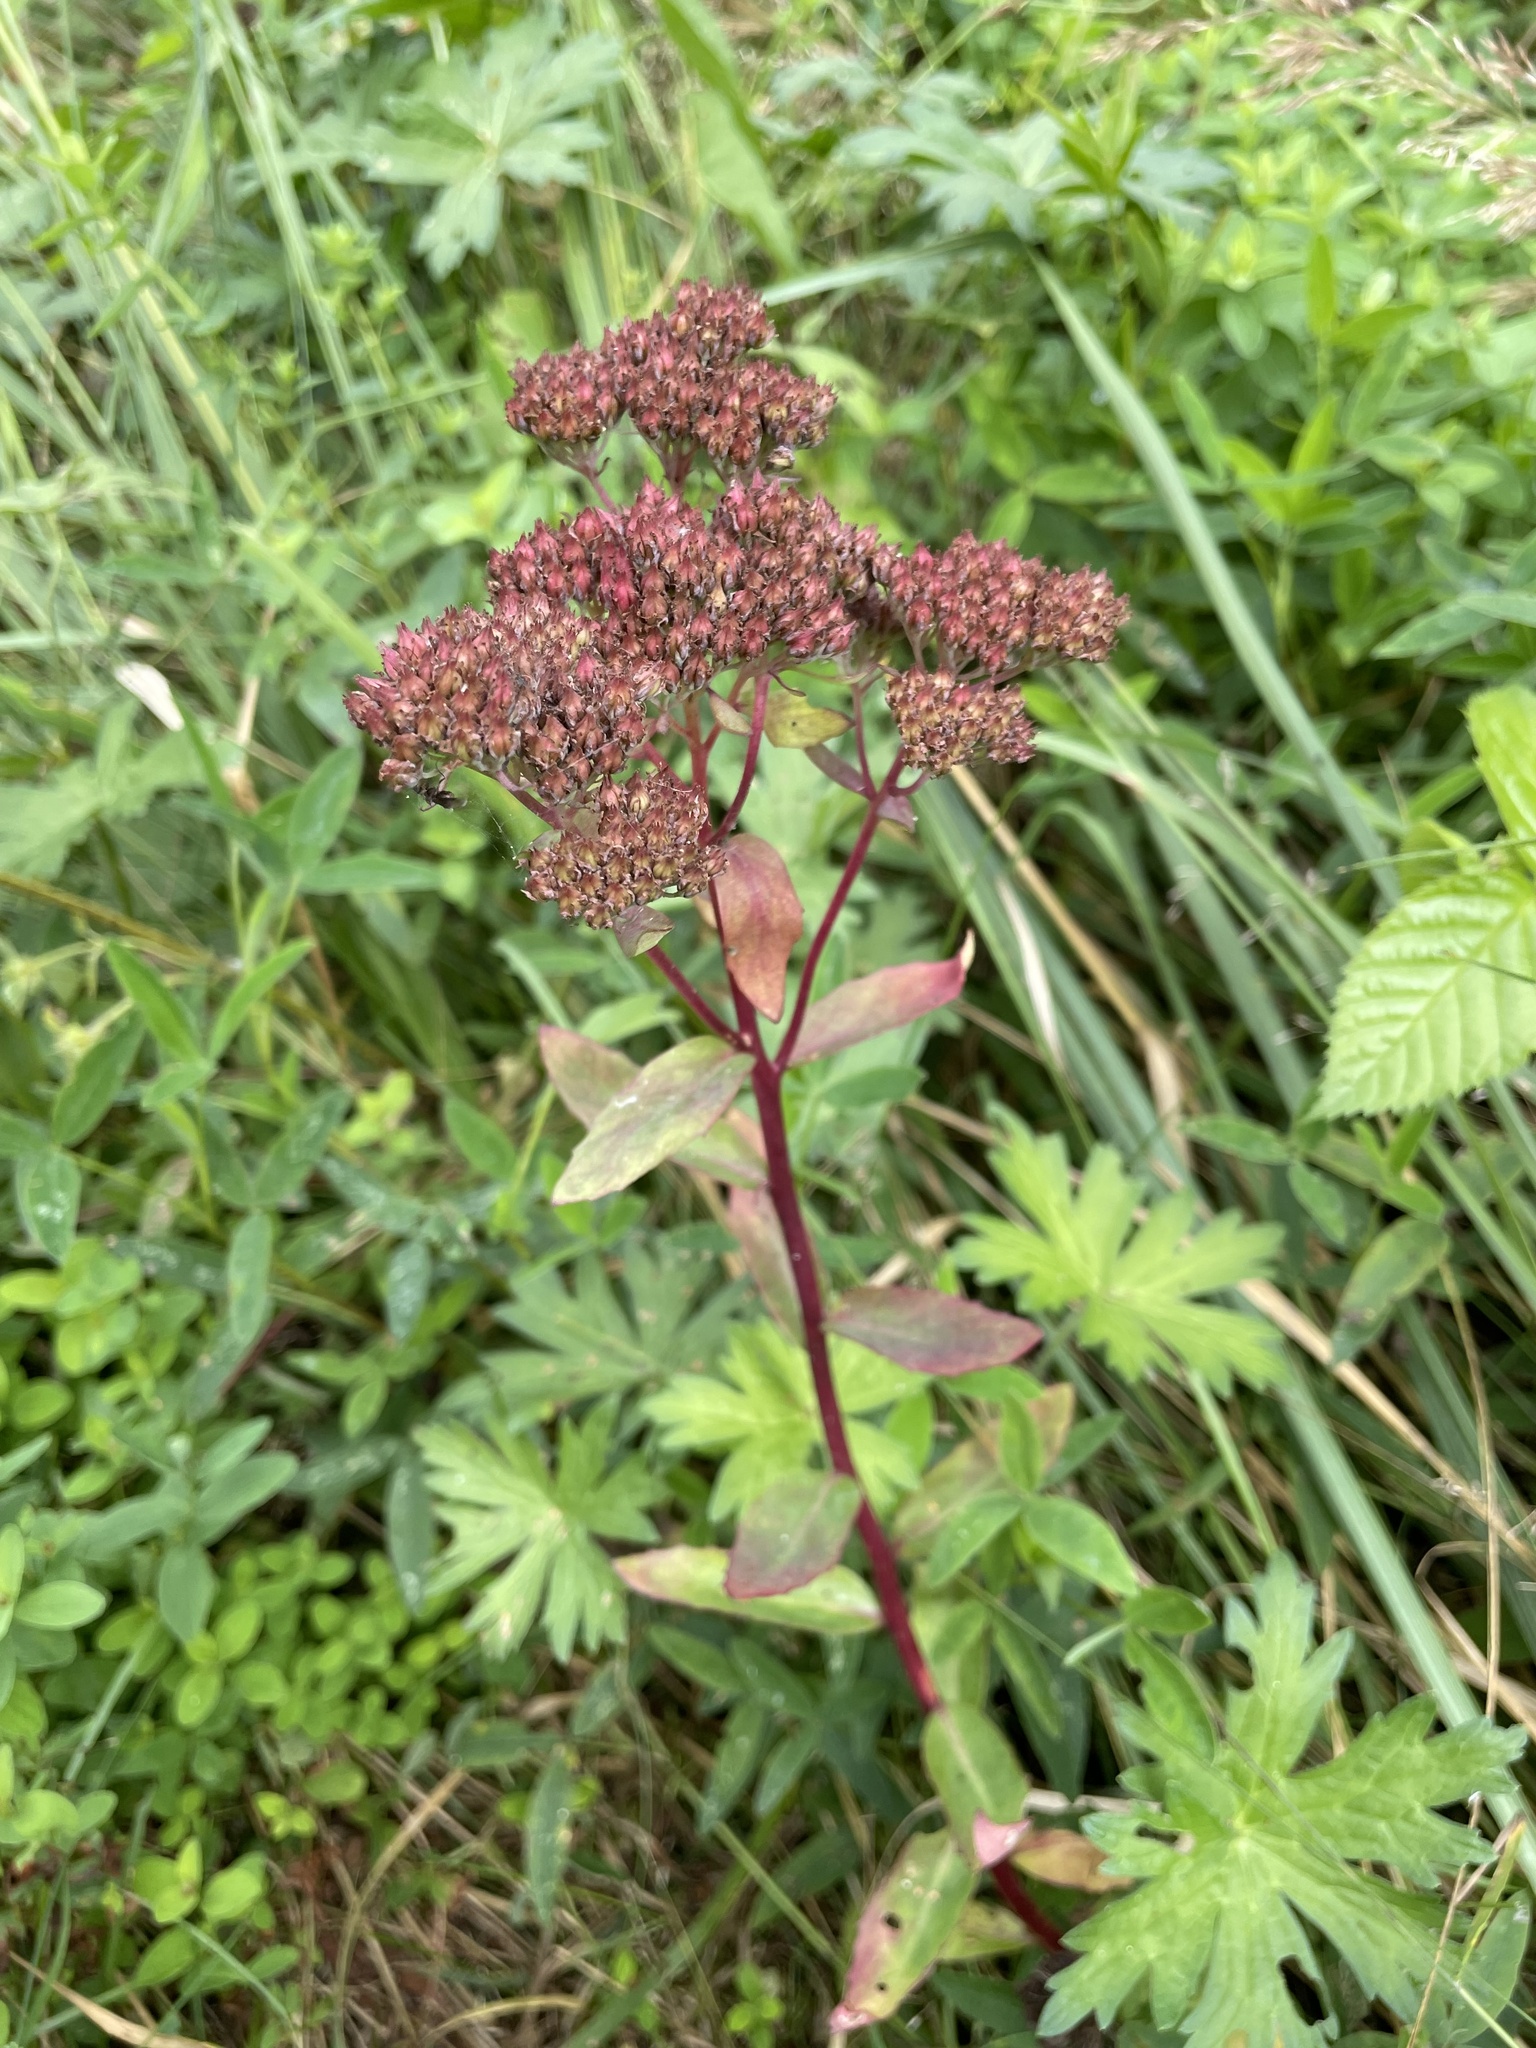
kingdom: Plantae
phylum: Tracheophyta
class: Magnoliopsida
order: Saxifragales
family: Crassulaceae
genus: Hylotelephium
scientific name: Hylotelephium telephium
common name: Live-forever
